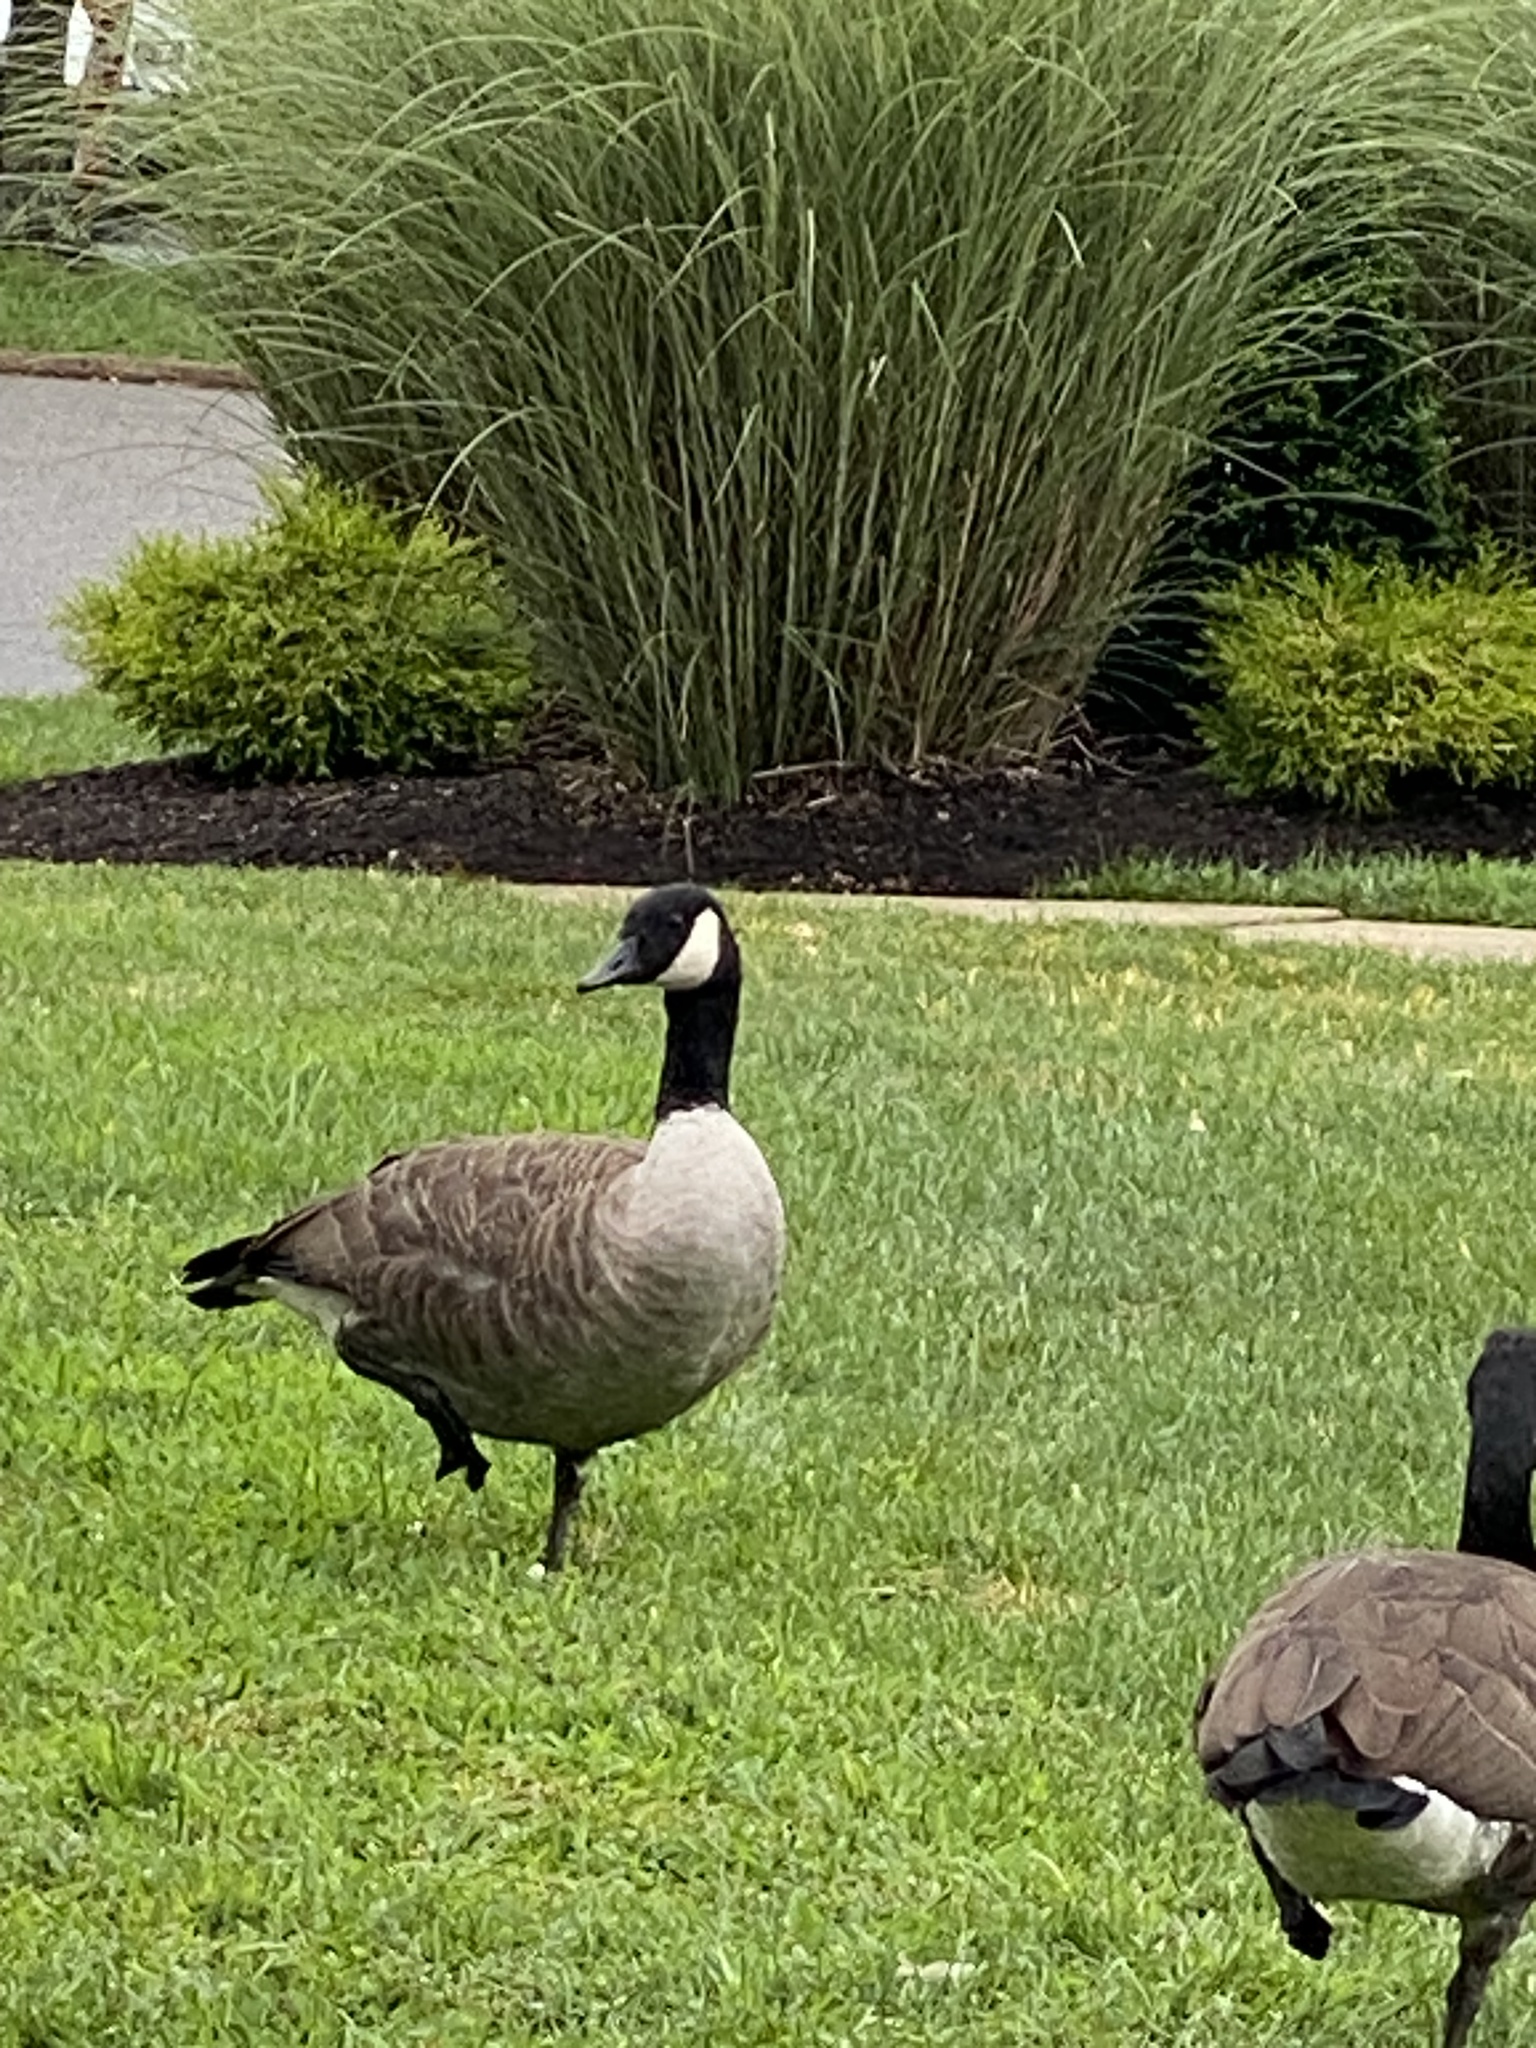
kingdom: Animalia
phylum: Chordata
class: Aves
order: Anseriformes
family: Anatidae
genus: Branta
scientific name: Branta canadensis
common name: Canada goose
